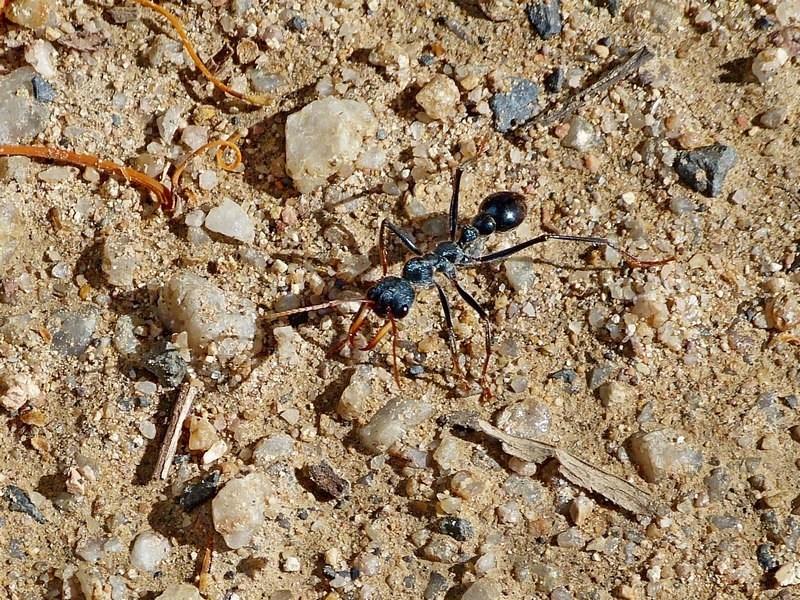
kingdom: Animalia
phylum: Arthropoda
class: Insecta
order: Hymenoptera
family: Formicidae
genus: Myrmecia
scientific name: Myrmecia tarsata
